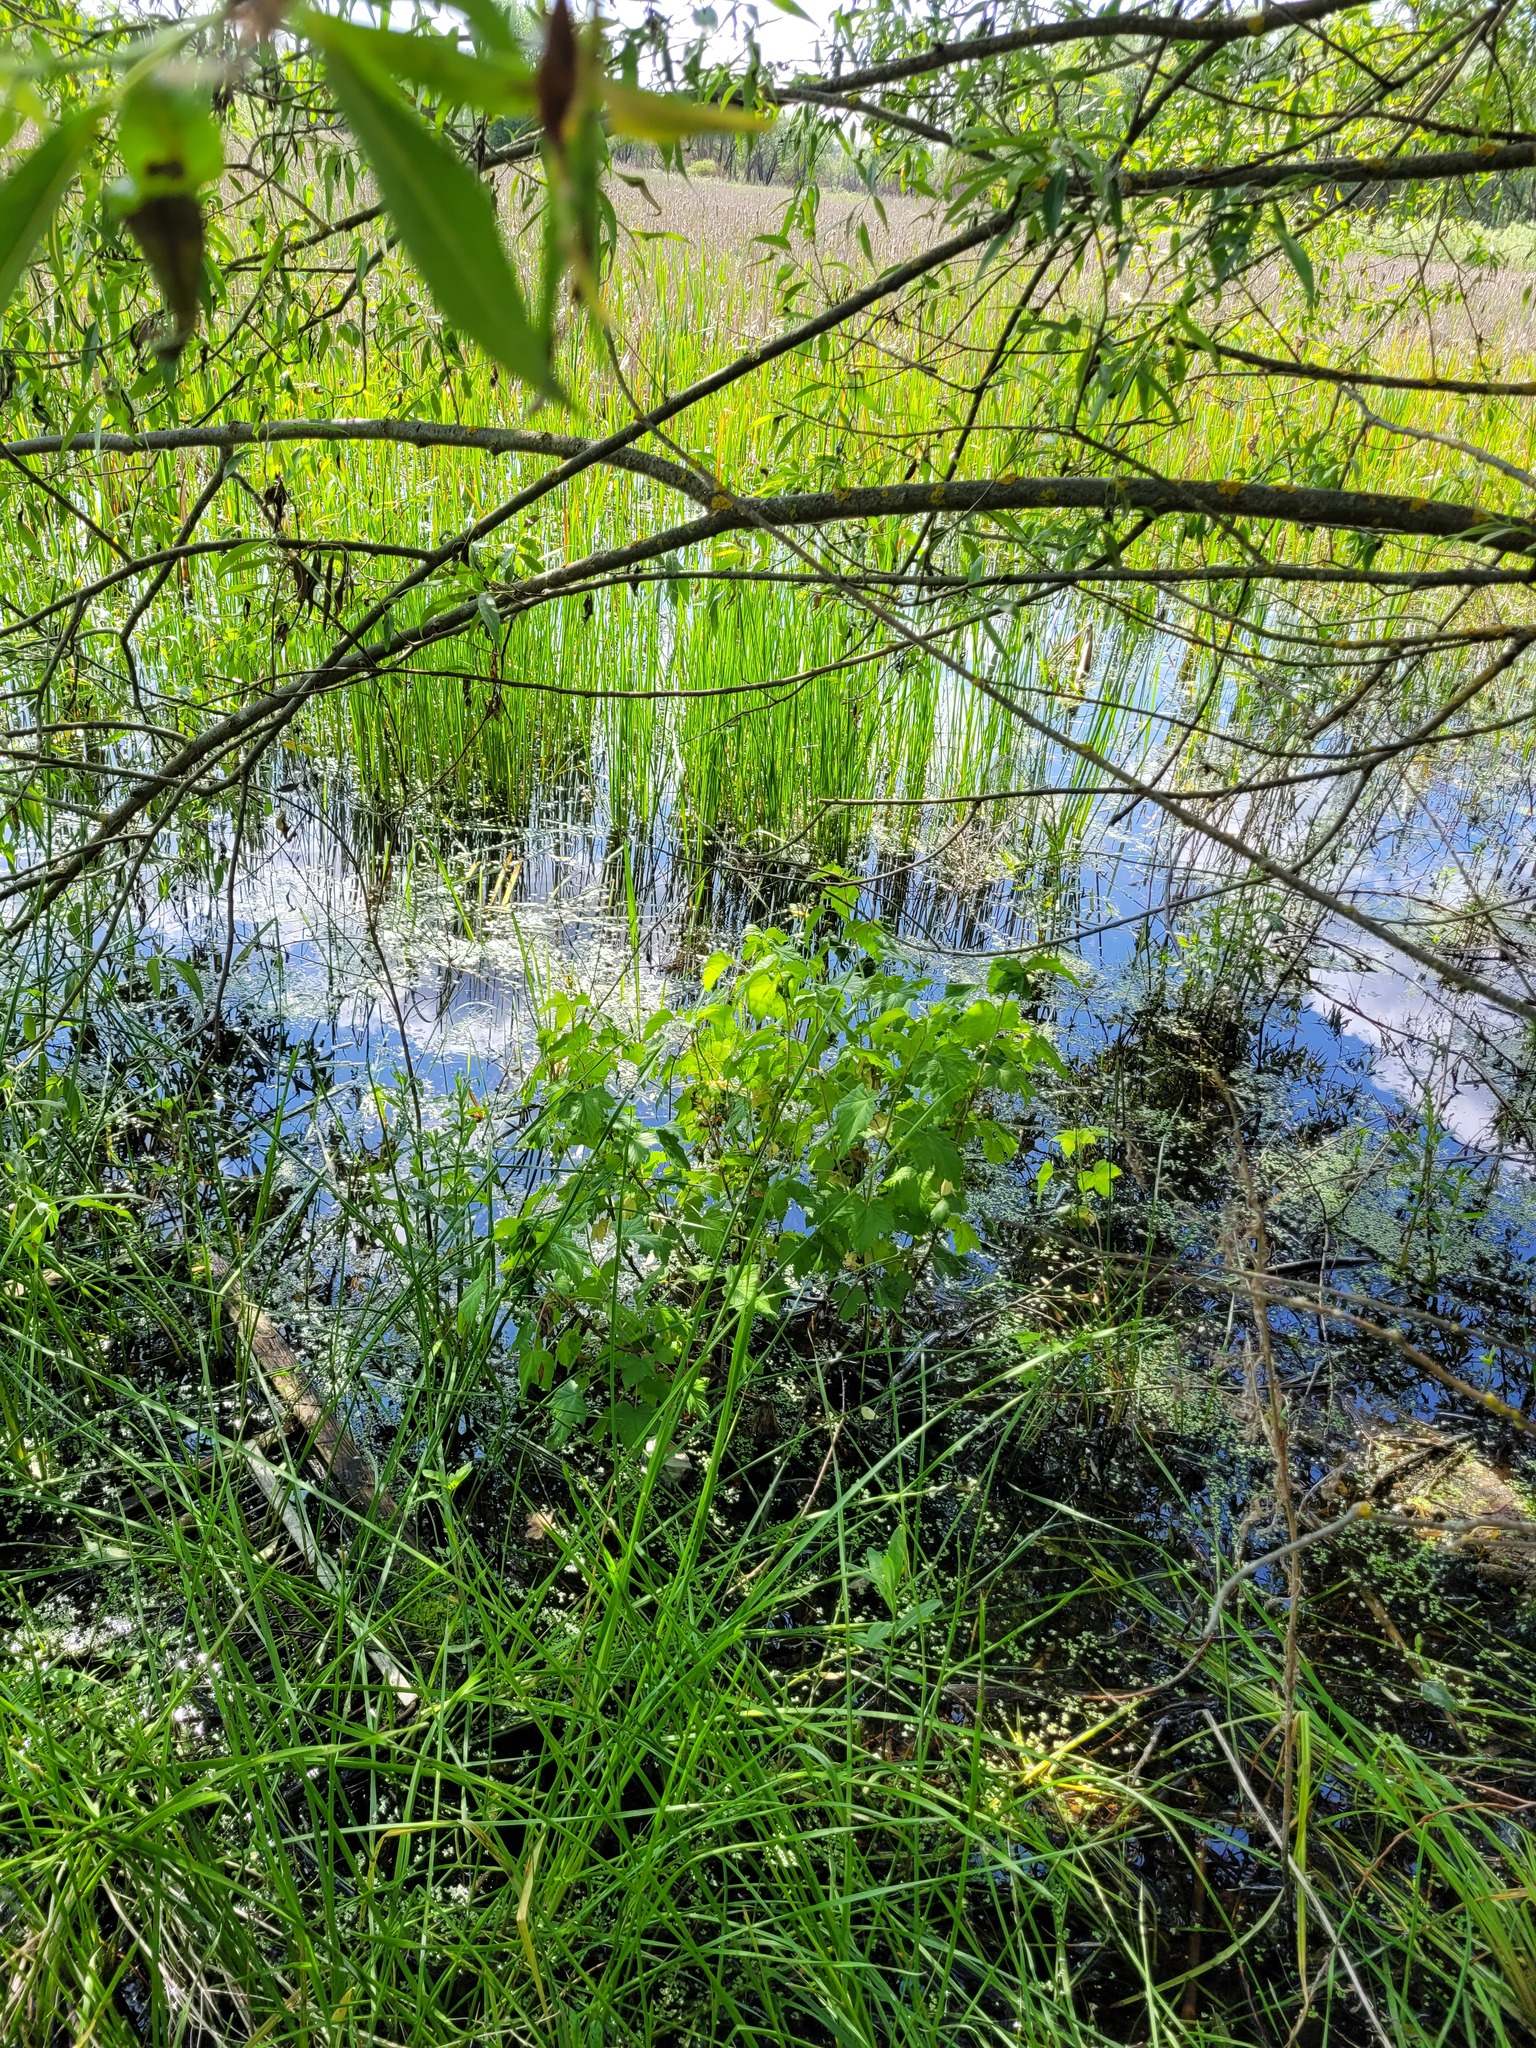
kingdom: Plantae
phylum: Tracheophyta
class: Magnoliopsida
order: Saxifragales
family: Grossulariaceae
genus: Ribes
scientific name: Ribes nigrum
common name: Black currant
